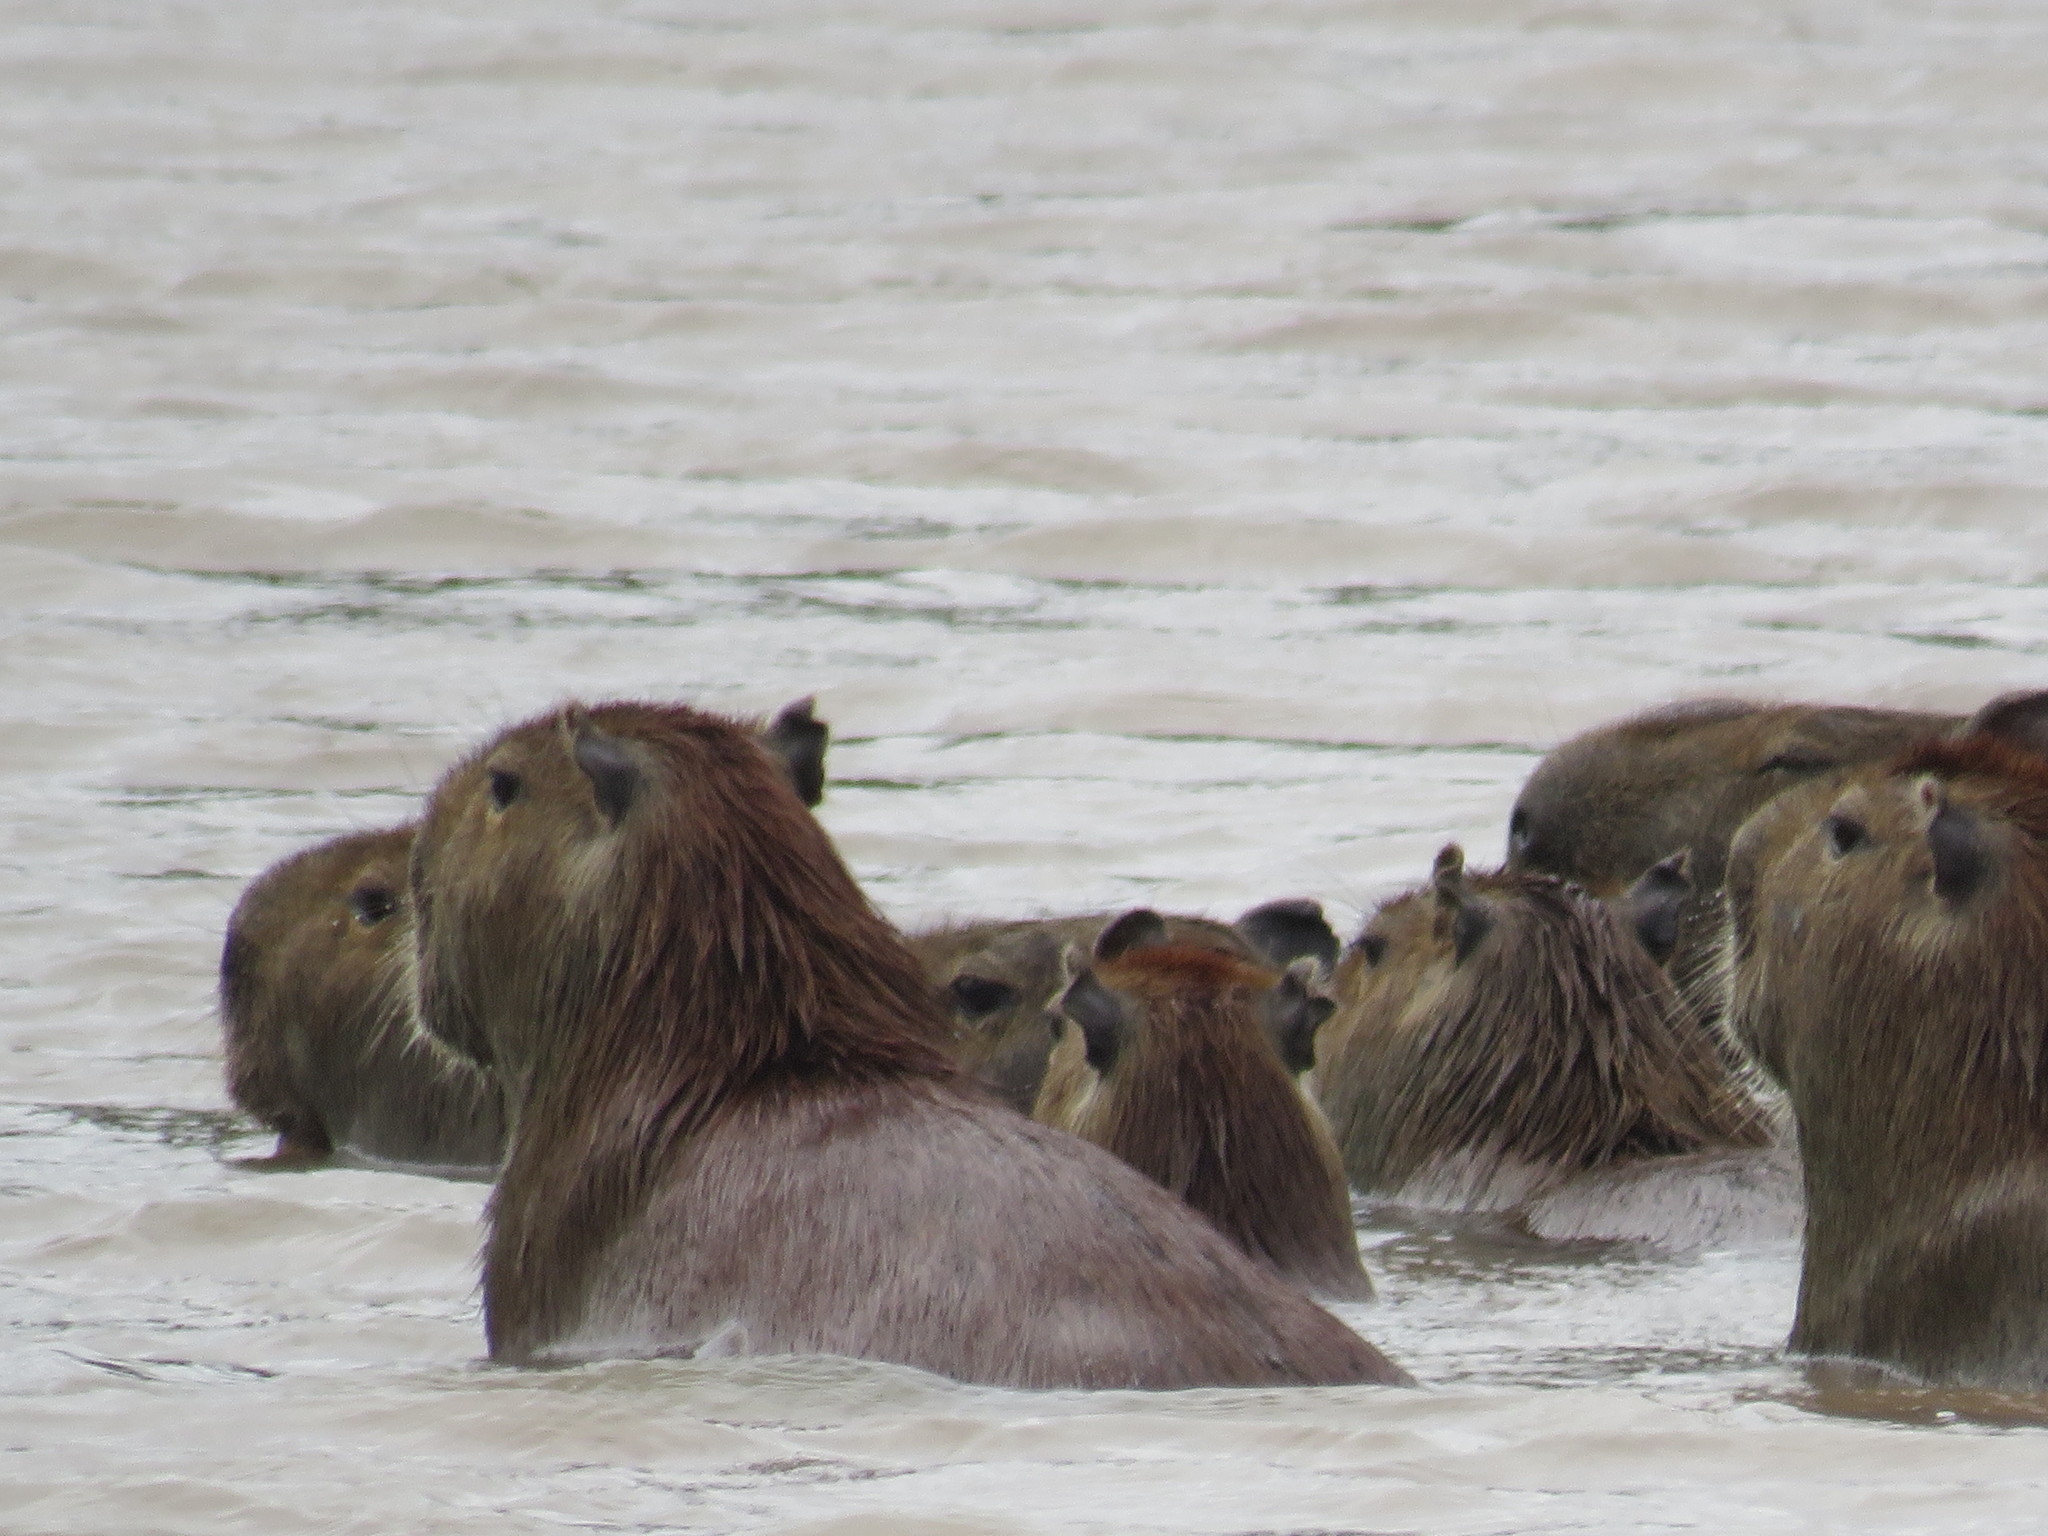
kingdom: Animalia
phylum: Chordata
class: Mammalia
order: Rodentia
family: Caviidae
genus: Hydrochoerus
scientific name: Hydrochoerus hydrochaeris
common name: Capybara
